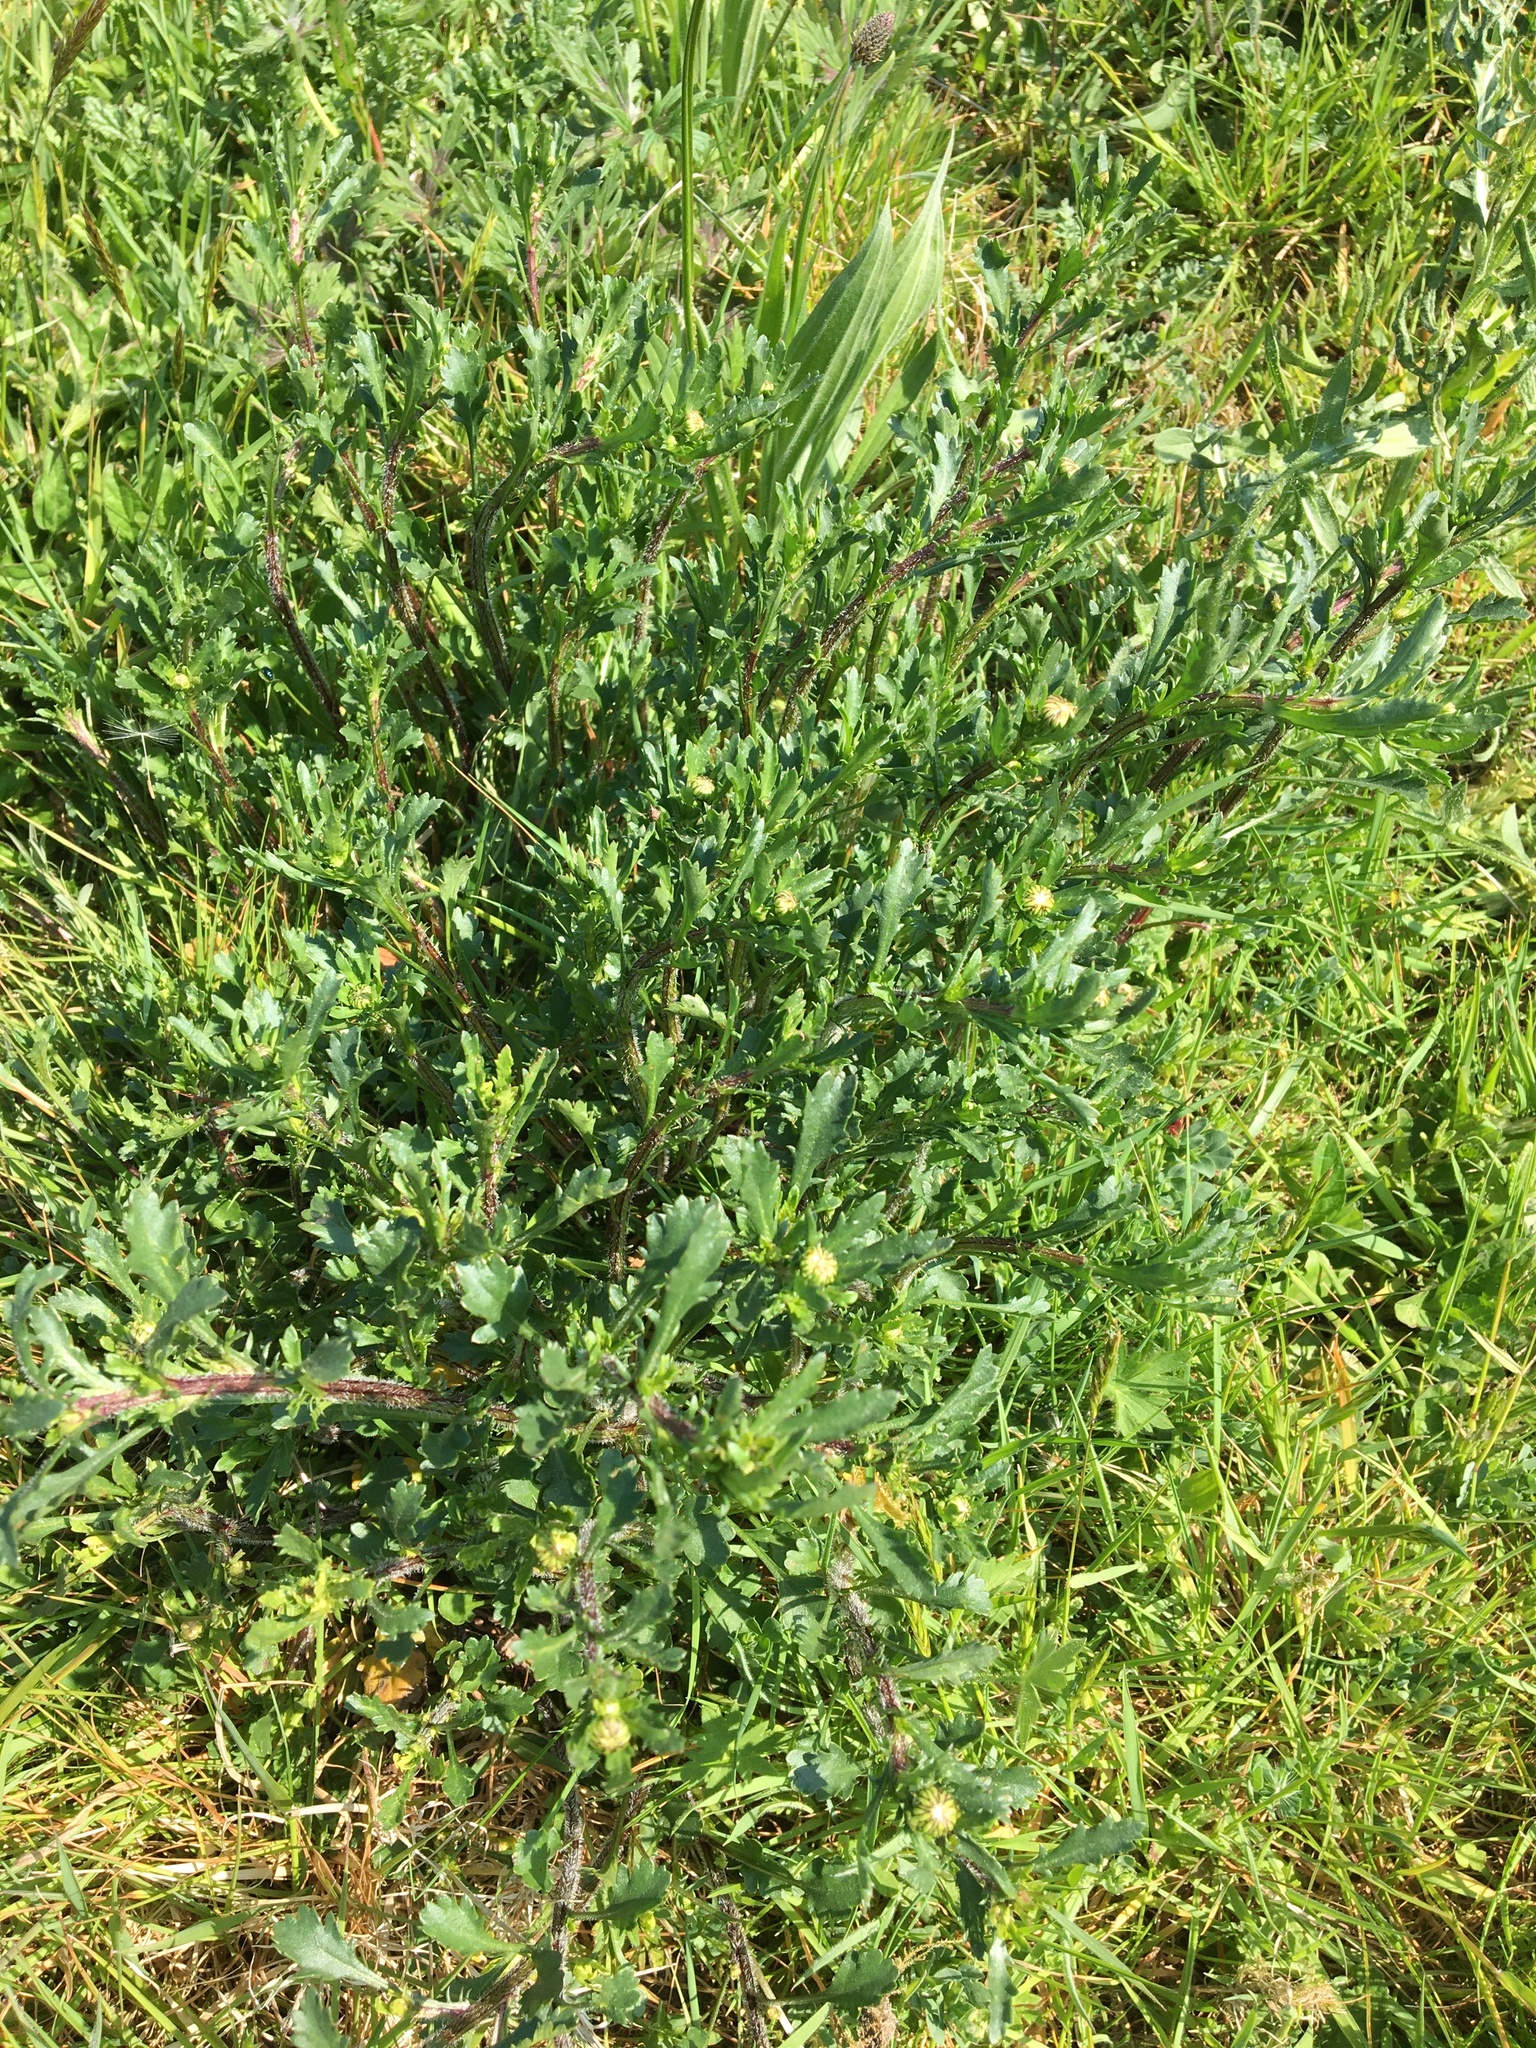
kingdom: Plantae
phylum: Tracheophyta
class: Magnoliopsida
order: Asterales
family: Asteraceae
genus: Leucanthemum
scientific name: Leucanthemum vulgare
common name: Oxeye daisy
